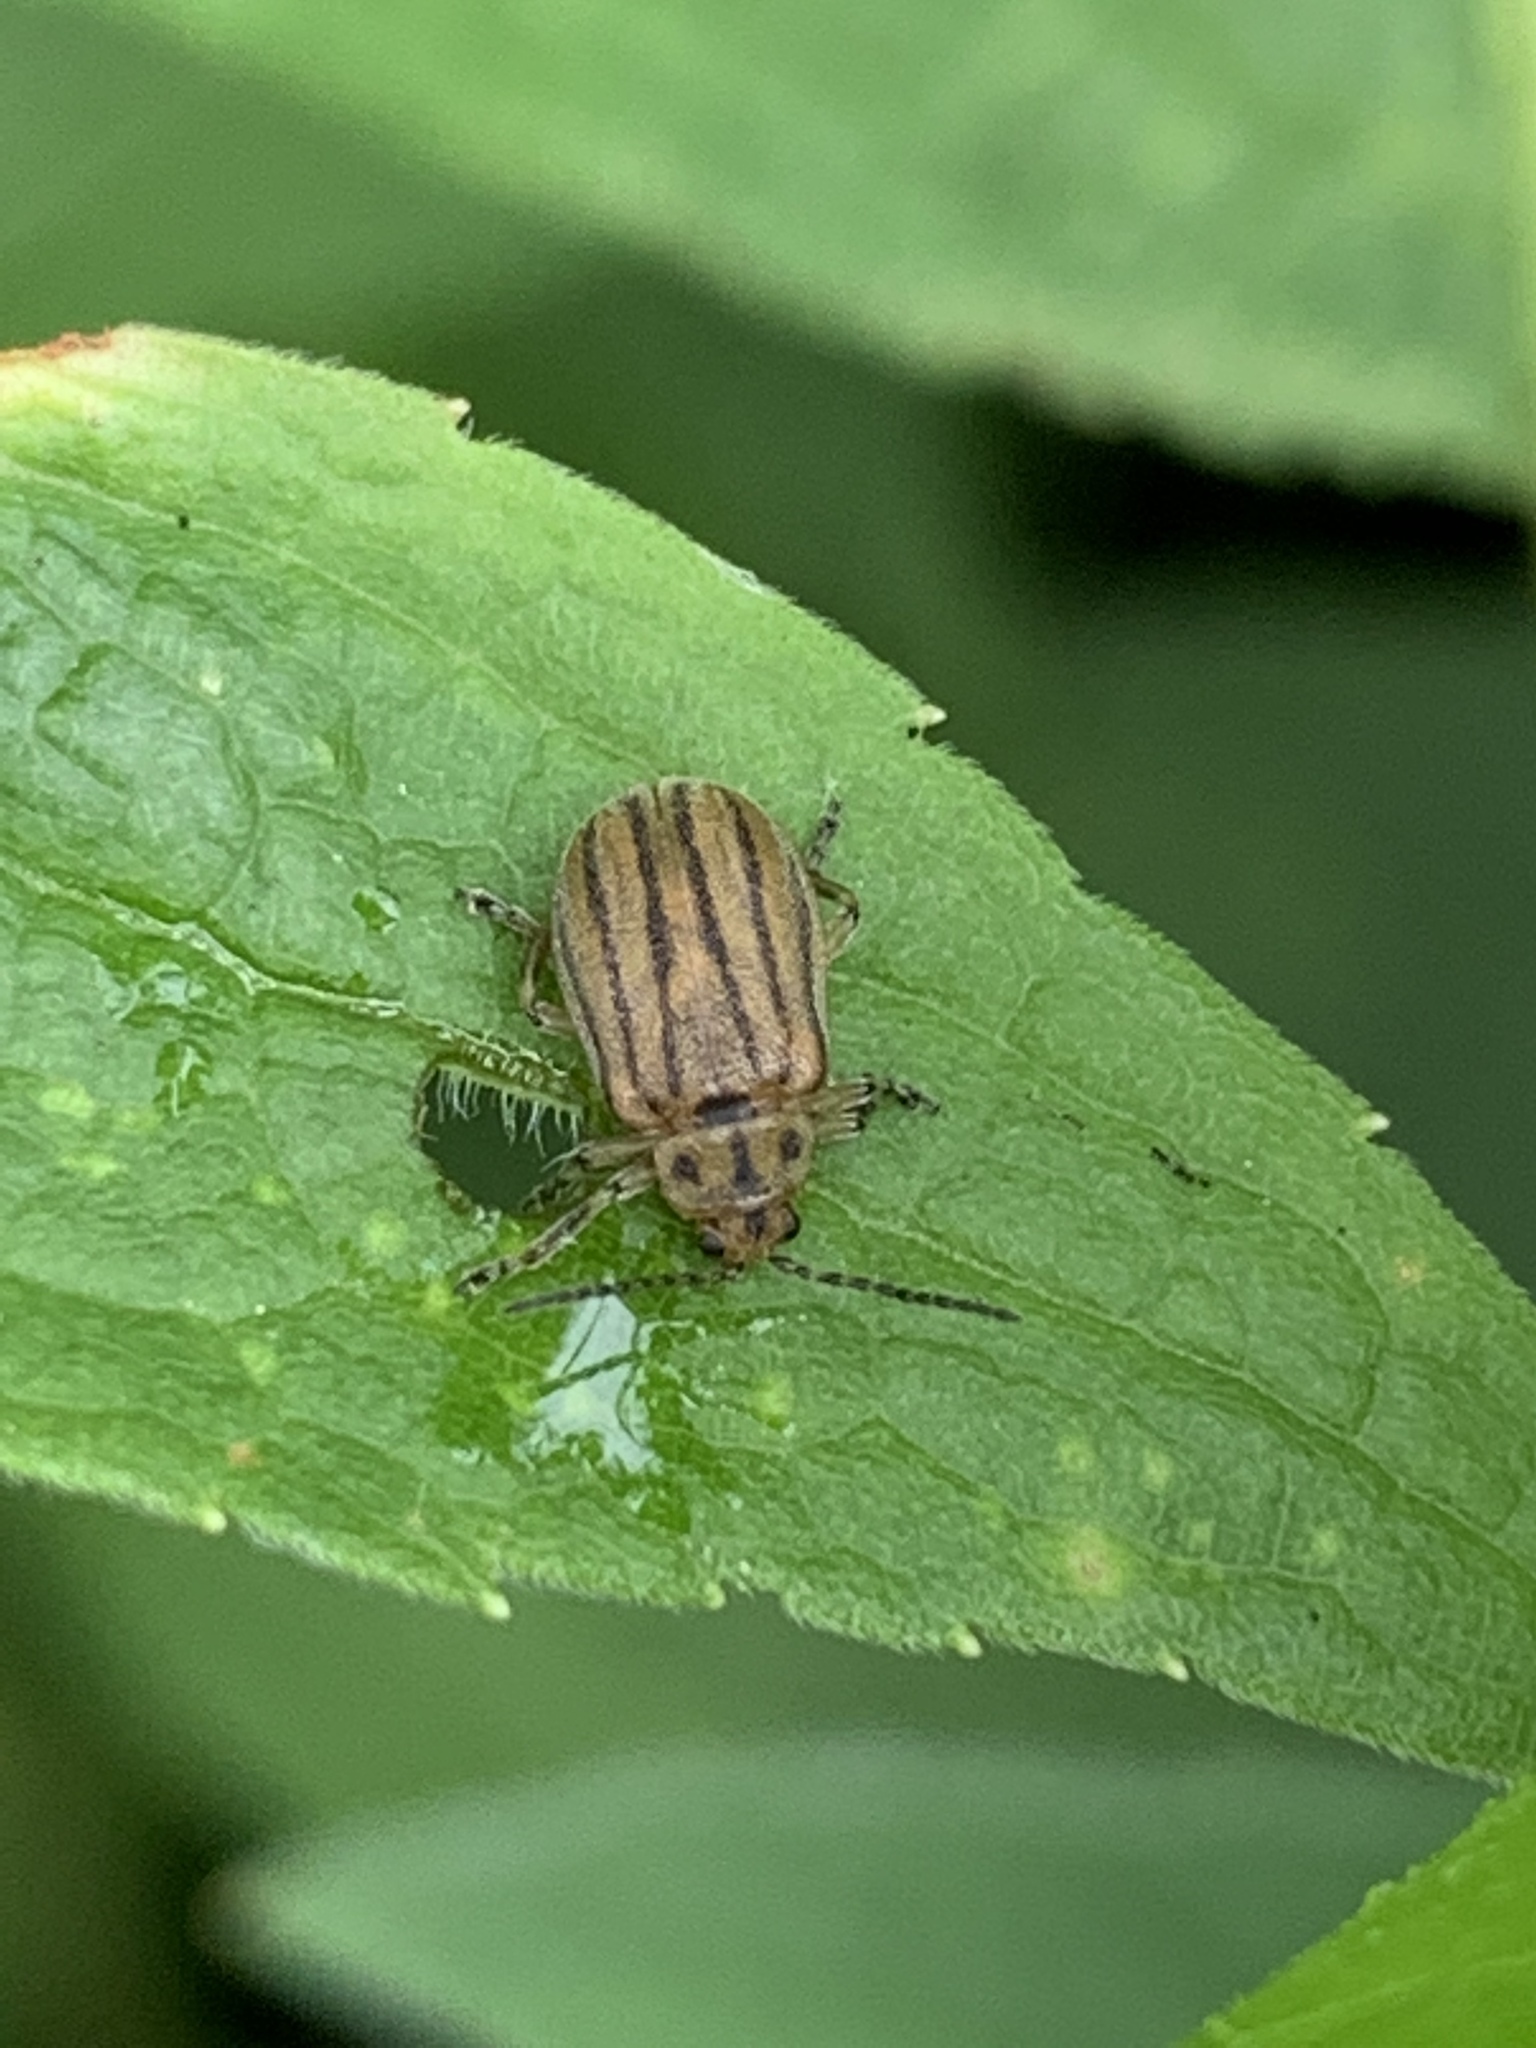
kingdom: Animalia
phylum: Arthropoda
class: Insecta
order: Coleoptera
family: Chrysomelidae
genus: Ophraella
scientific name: Ophraella conferta
